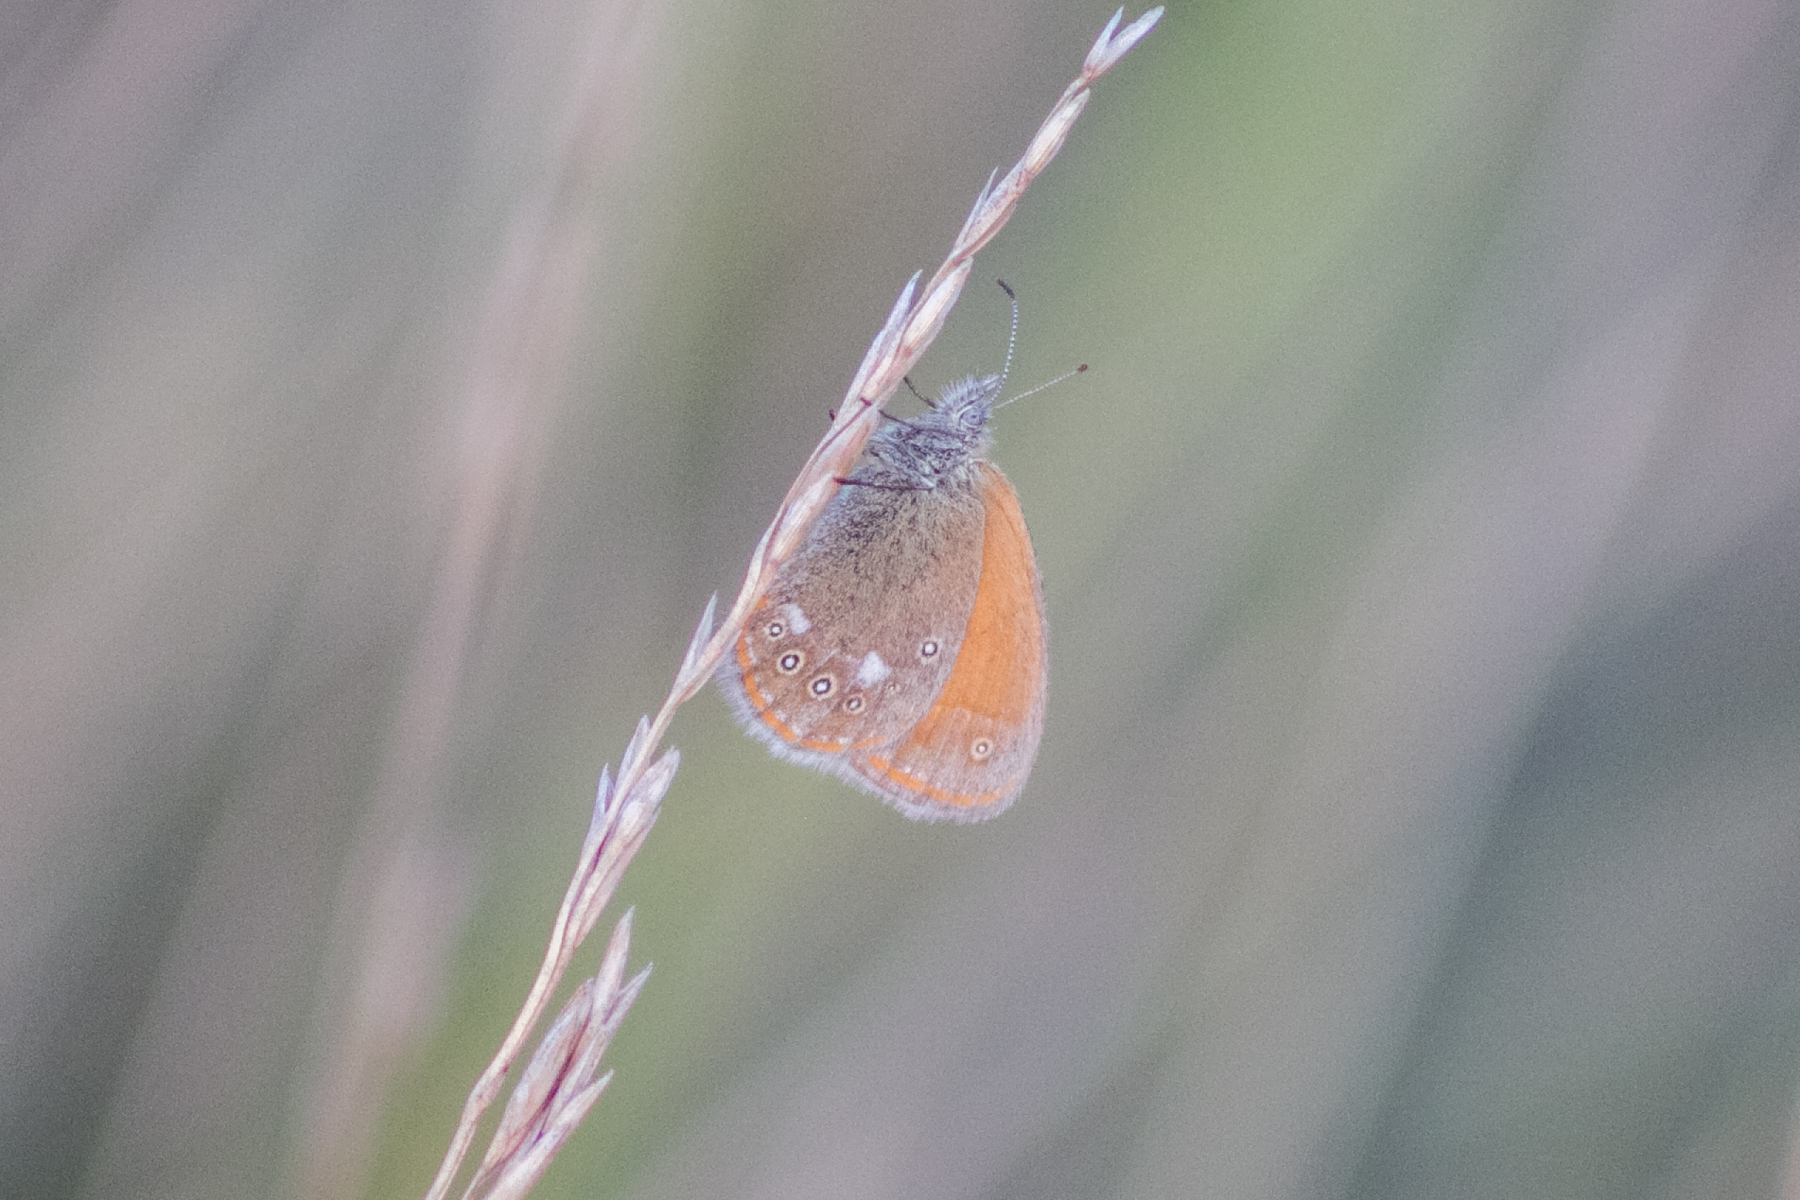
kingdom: Animalia
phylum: Arthropoda
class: Insecta
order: Lepidoptera
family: Nymphalidae
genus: Coenonympha
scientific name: Coenonympha iphis
